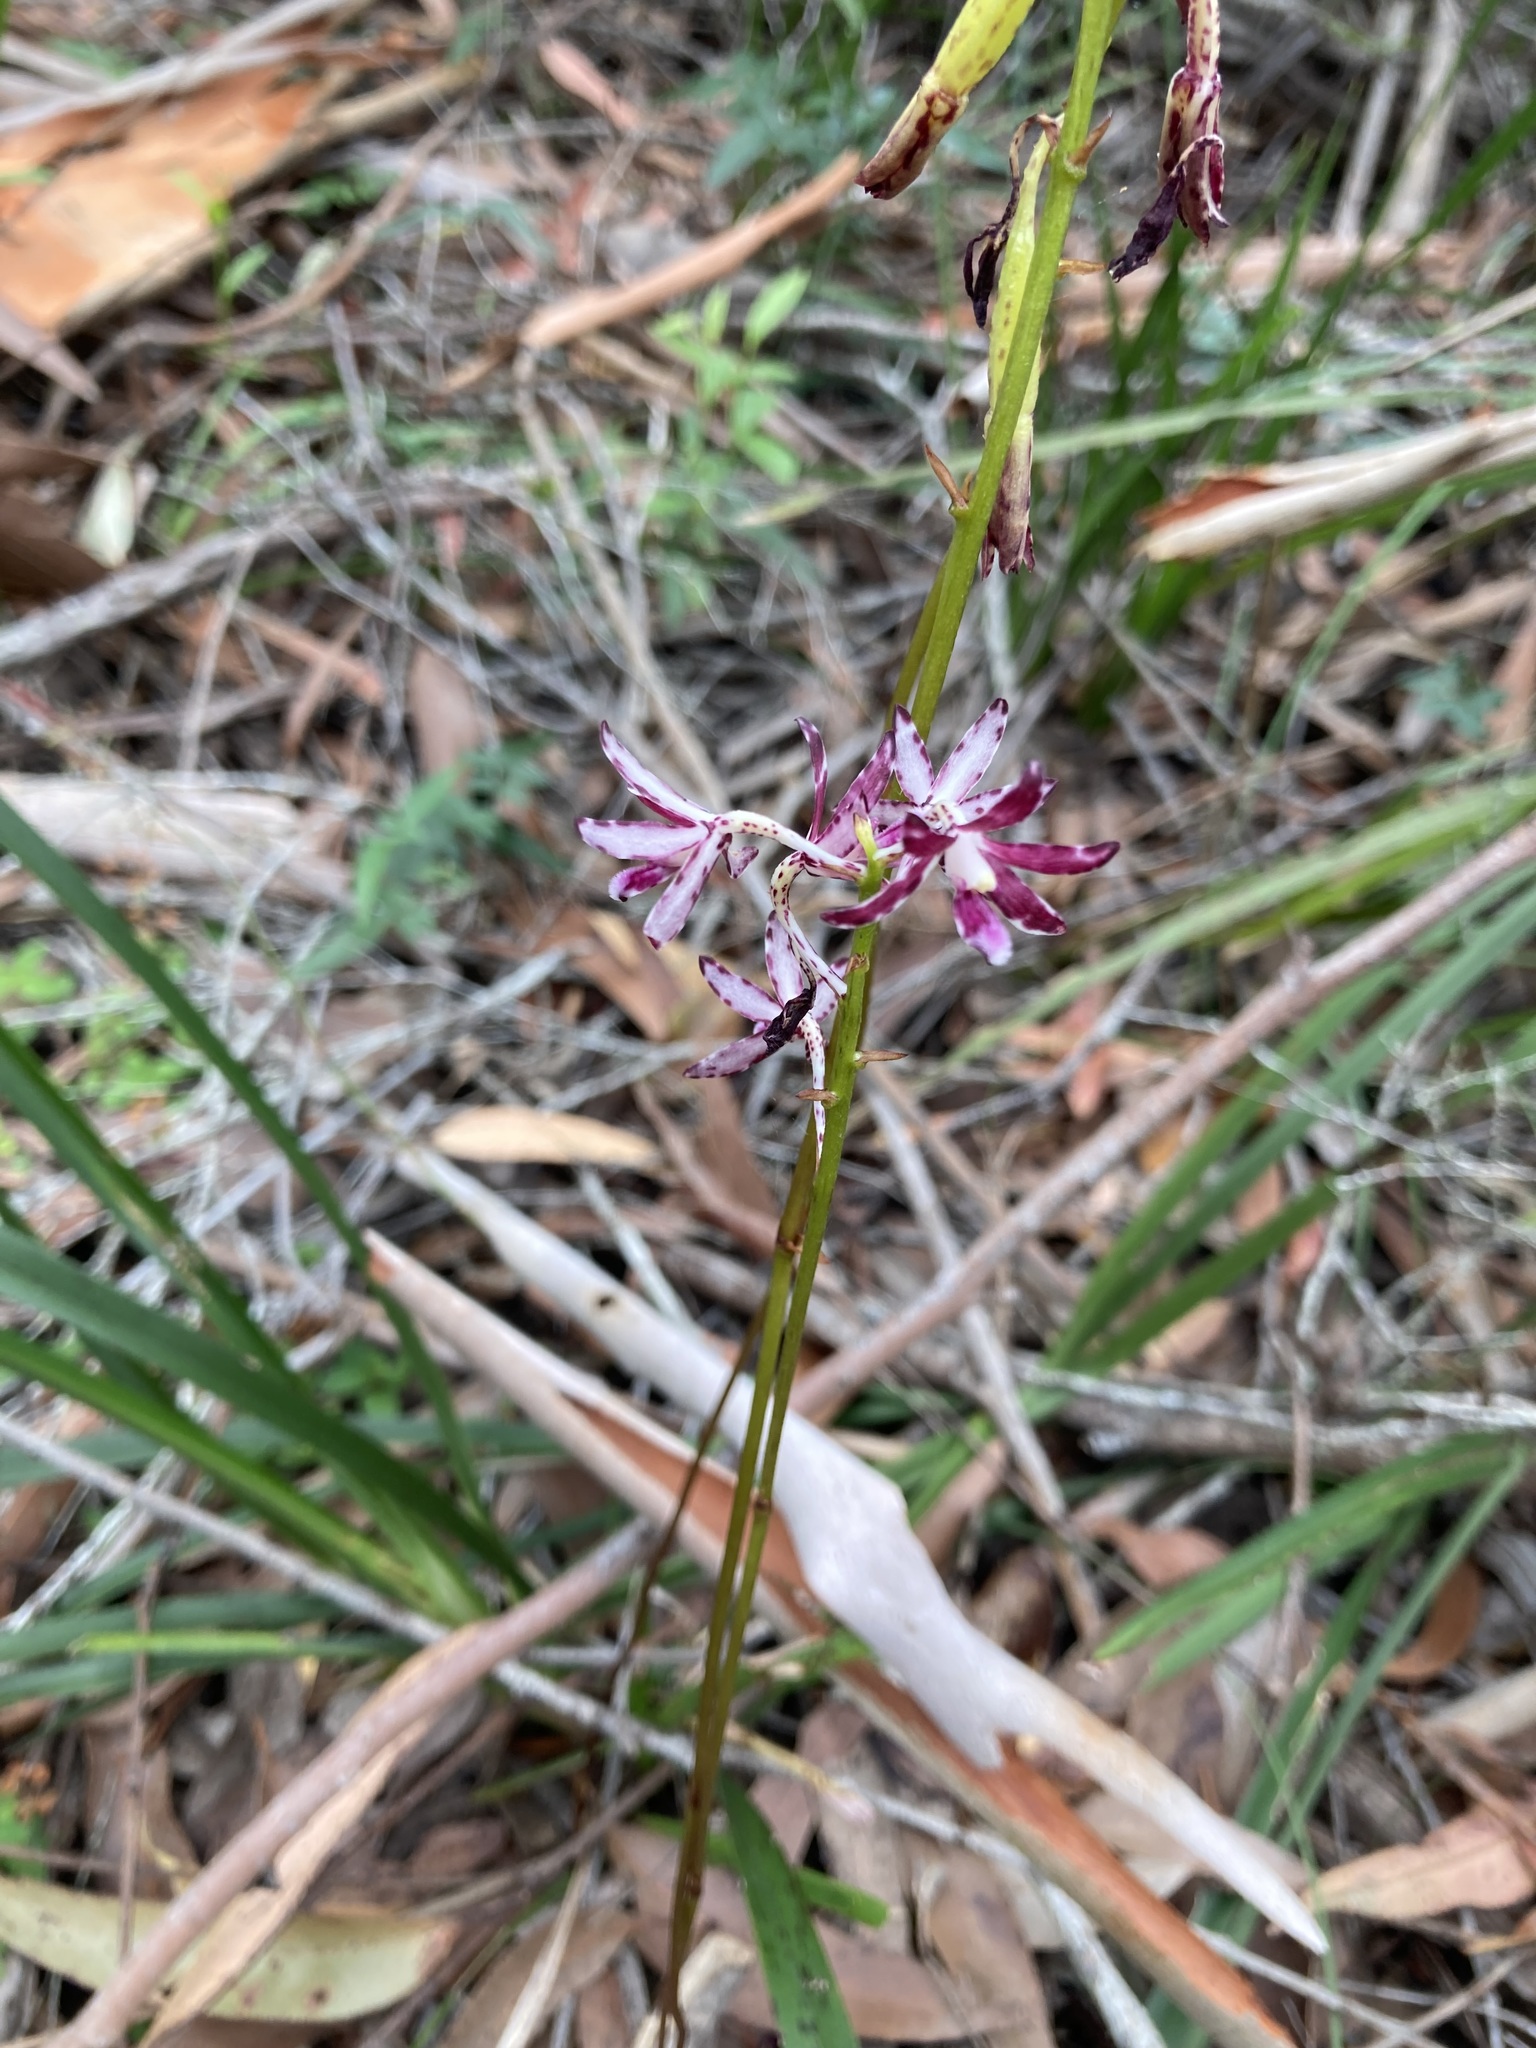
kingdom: Plantae
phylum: Tracheophyta
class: Liliopsida
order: Asparagales
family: Orchidaceae
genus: Dipodium
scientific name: Dipodium variegatum
